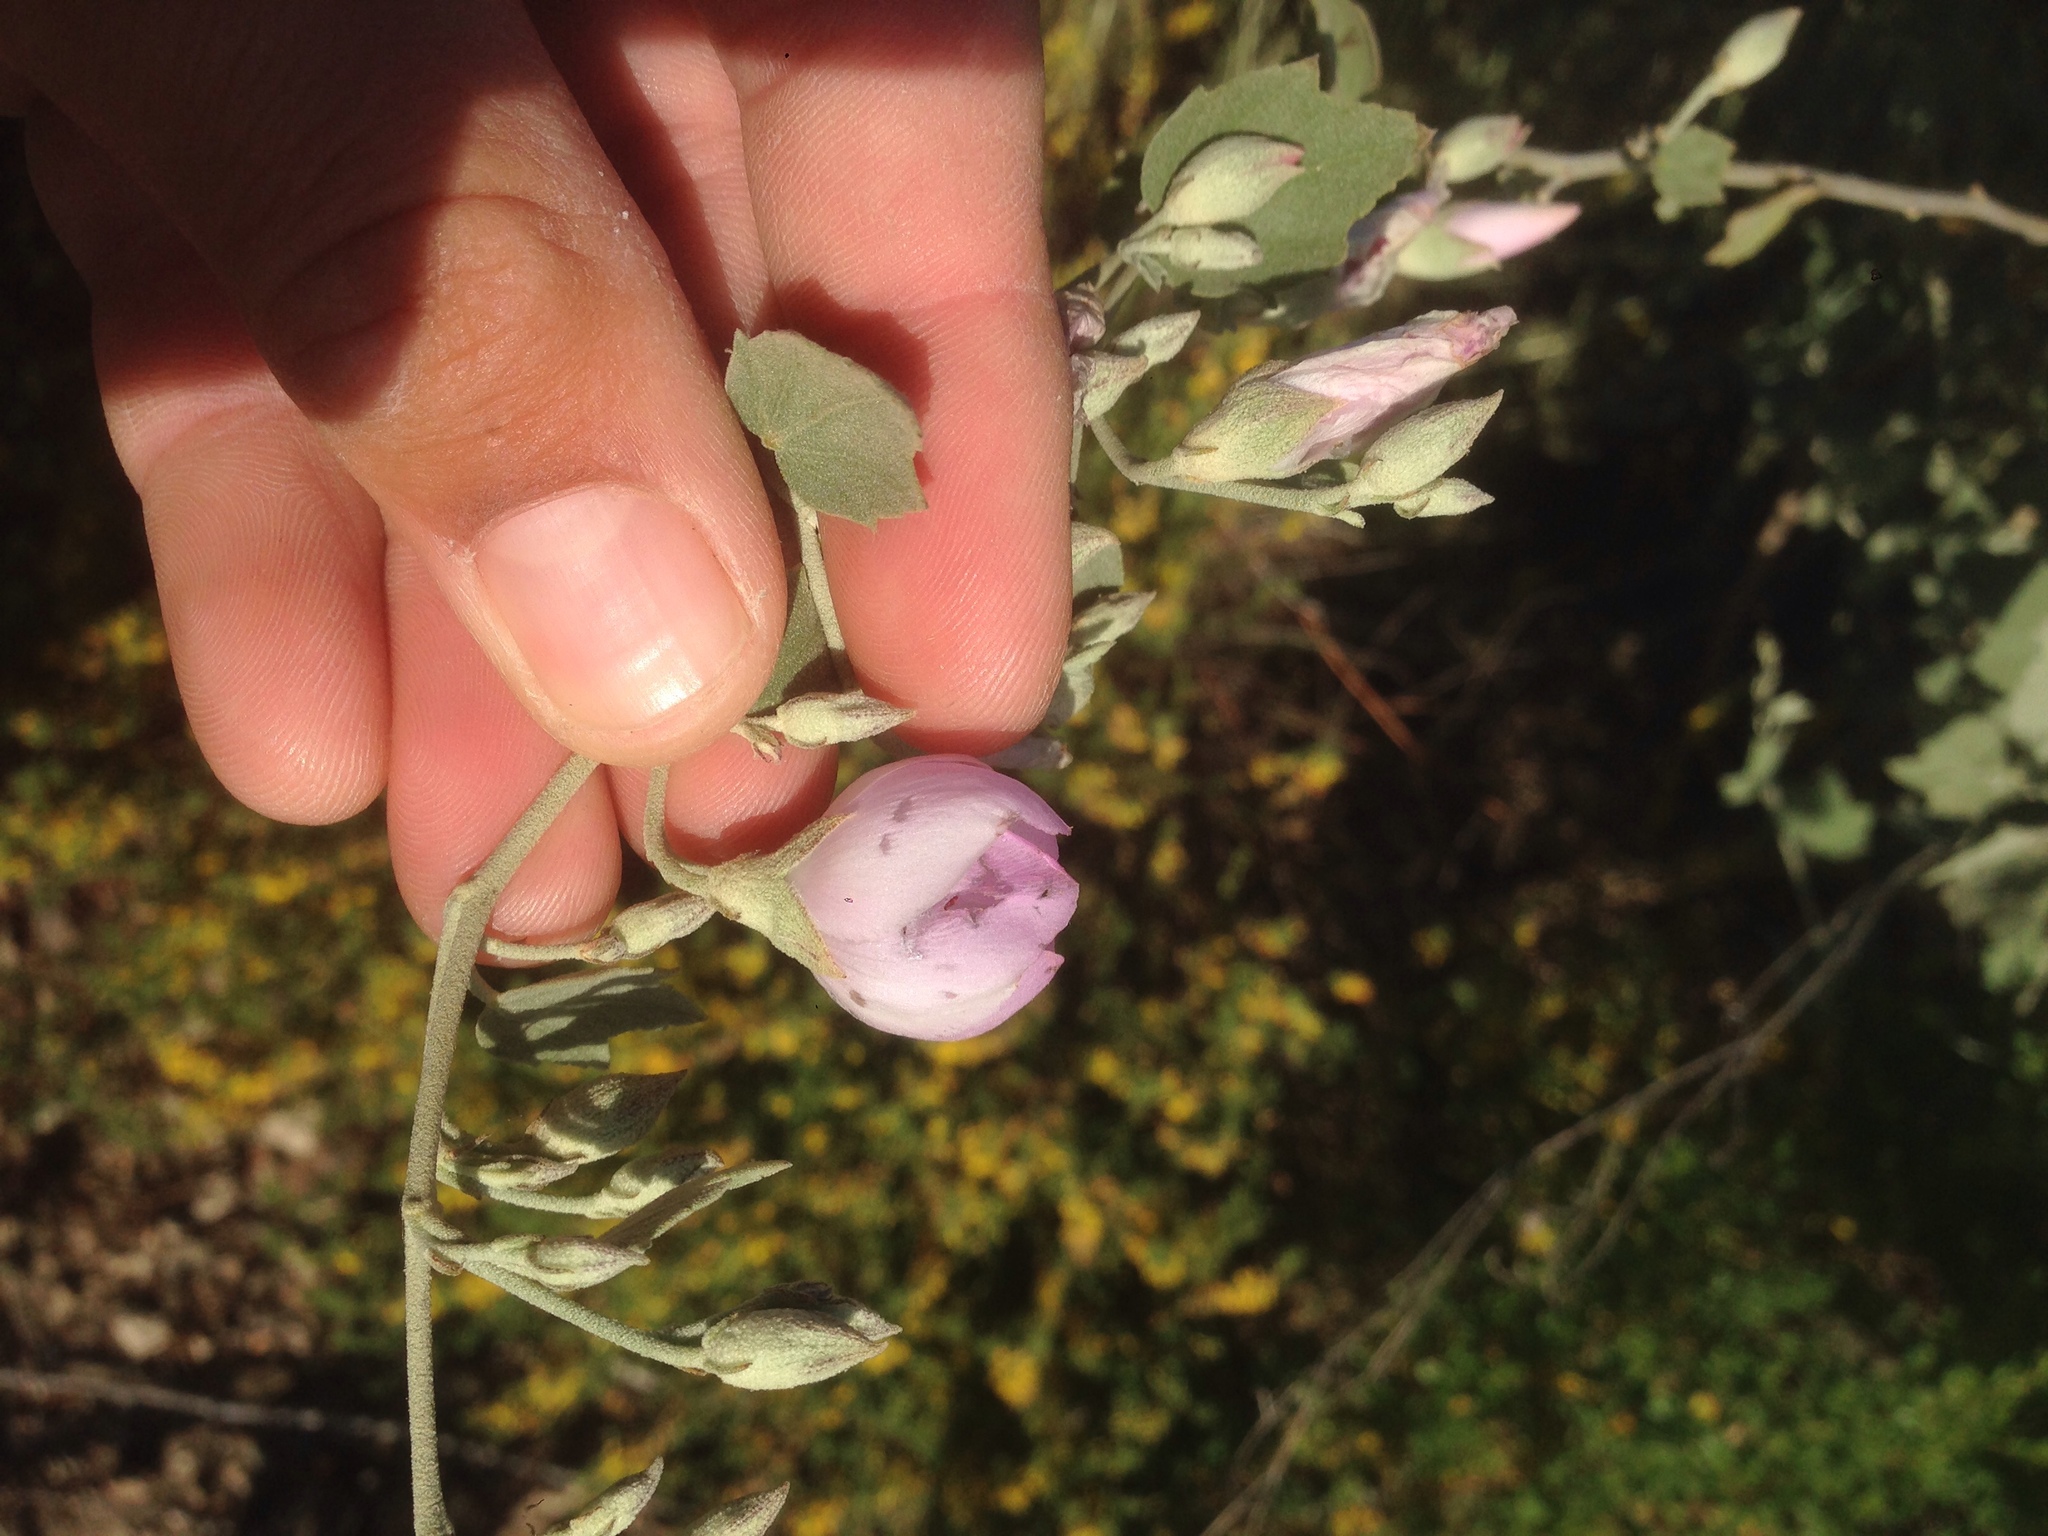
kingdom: Plantae
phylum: Tracheophyta
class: Magnoliopsida
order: Malvales
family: Malvaceae
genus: Malacothamnus
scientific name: Malacothamnus fasciculatus
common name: Sant cruz island bush-mallow
